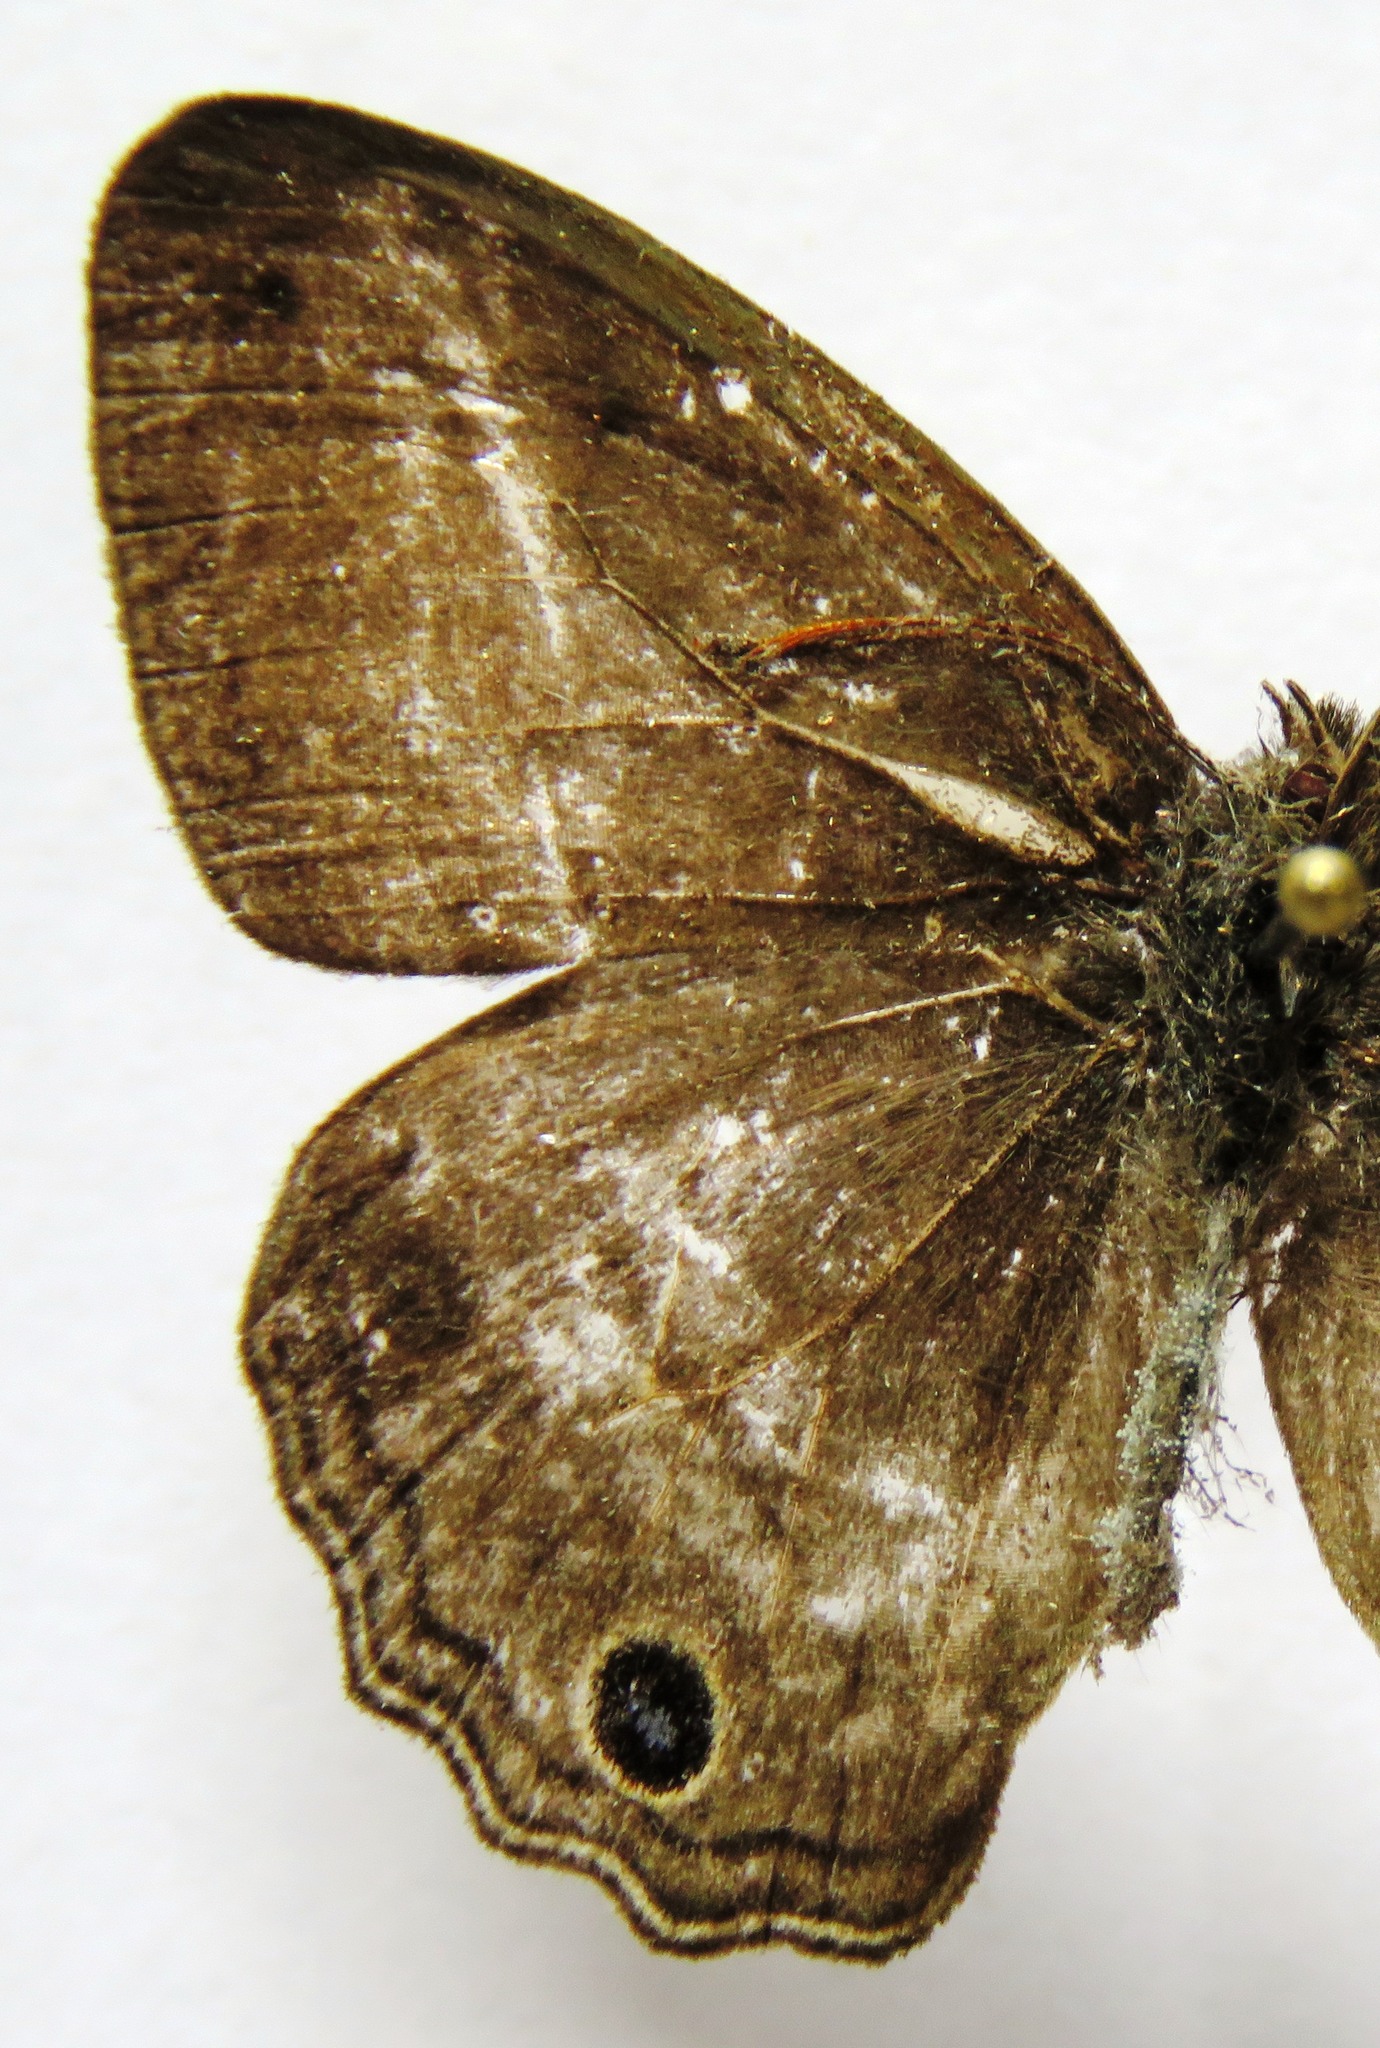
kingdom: Animalia
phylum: Arthropoda
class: Insecta
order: Lepidoptera
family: Nymphalidae
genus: Vareuptychia
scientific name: Vareuptychia similis
